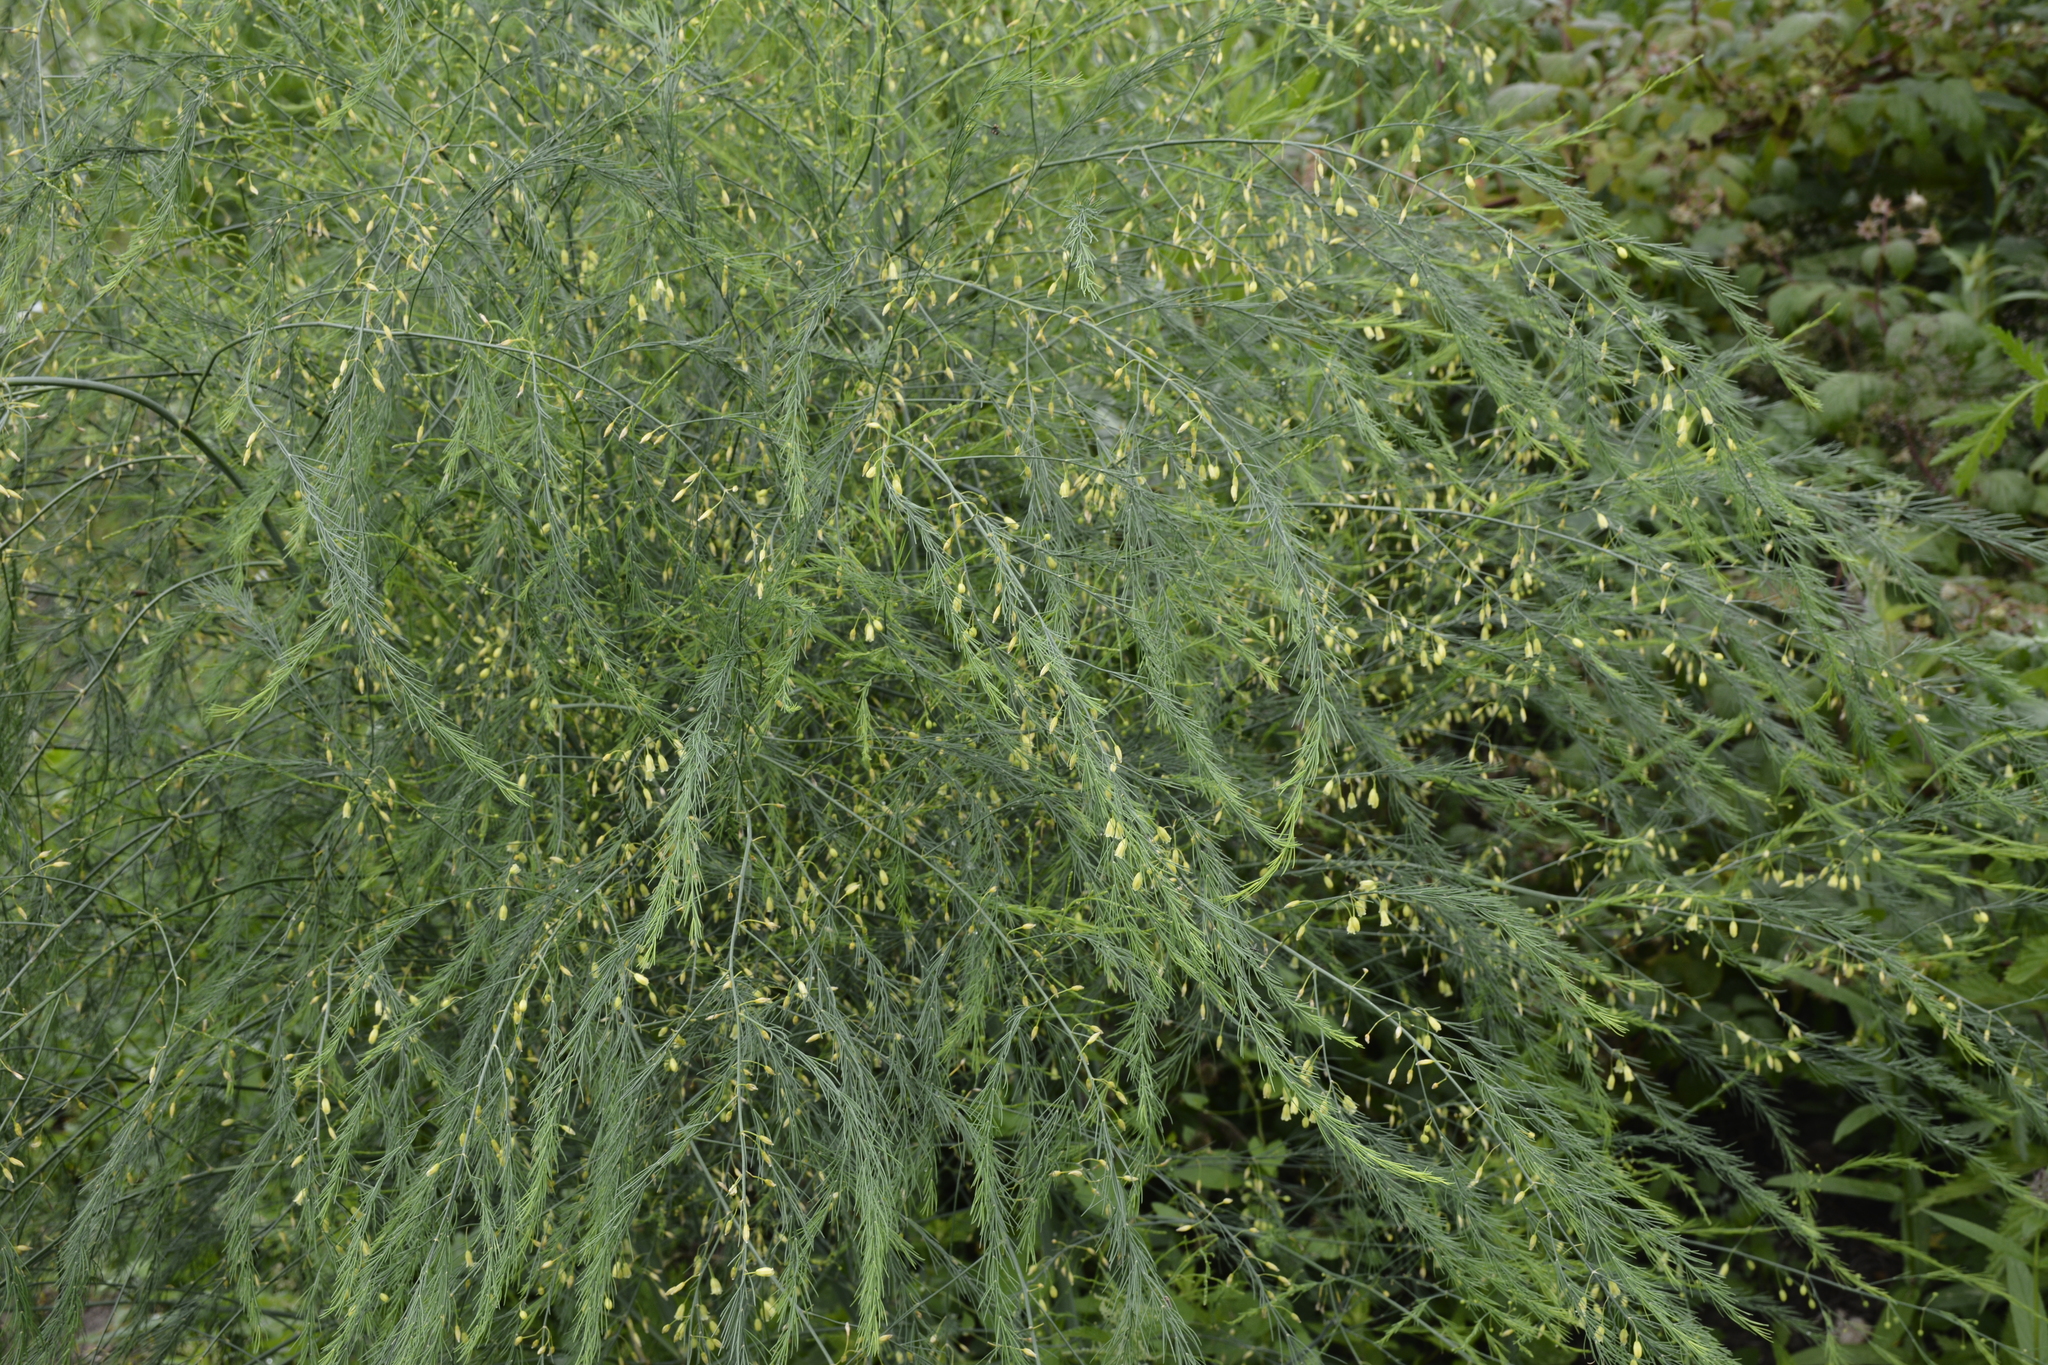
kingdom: Plantae
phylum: Tracheophyta
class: Liliopsida
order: Asparagales
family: Asparagaceae
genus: Asparagus
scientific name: Asparagus officinalis
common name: Garden asparagus
